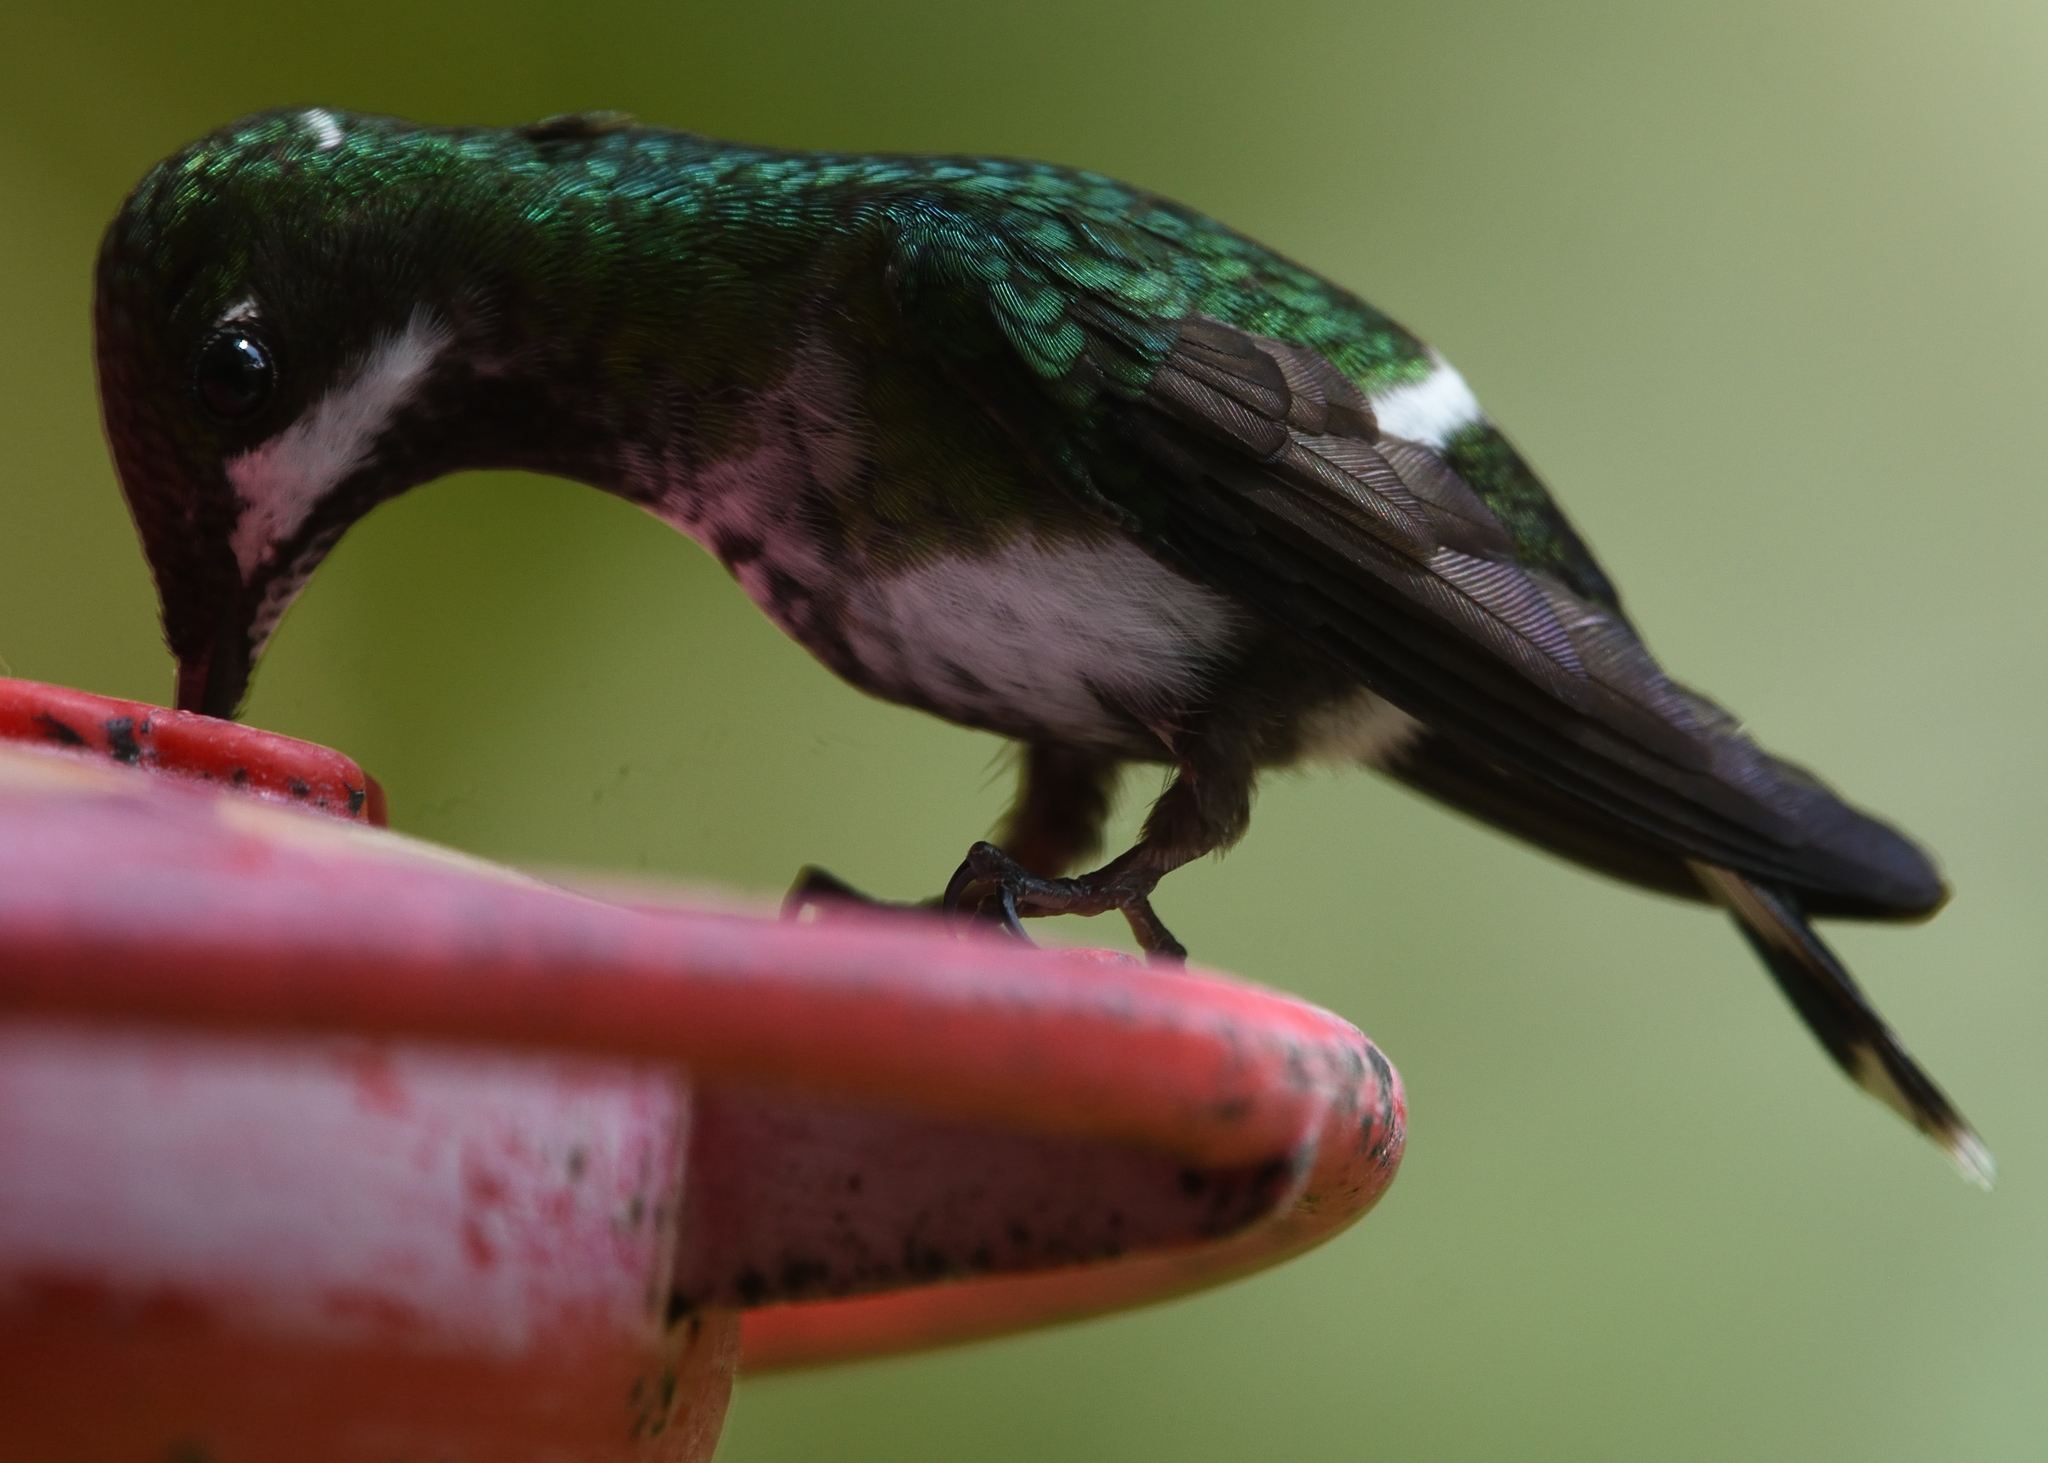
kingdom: Animalia
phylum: Chordata
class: Aves
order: Apodiformes
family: Trochilidae
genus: Discosura
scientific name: Discosura conversii
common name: Green thorntail
